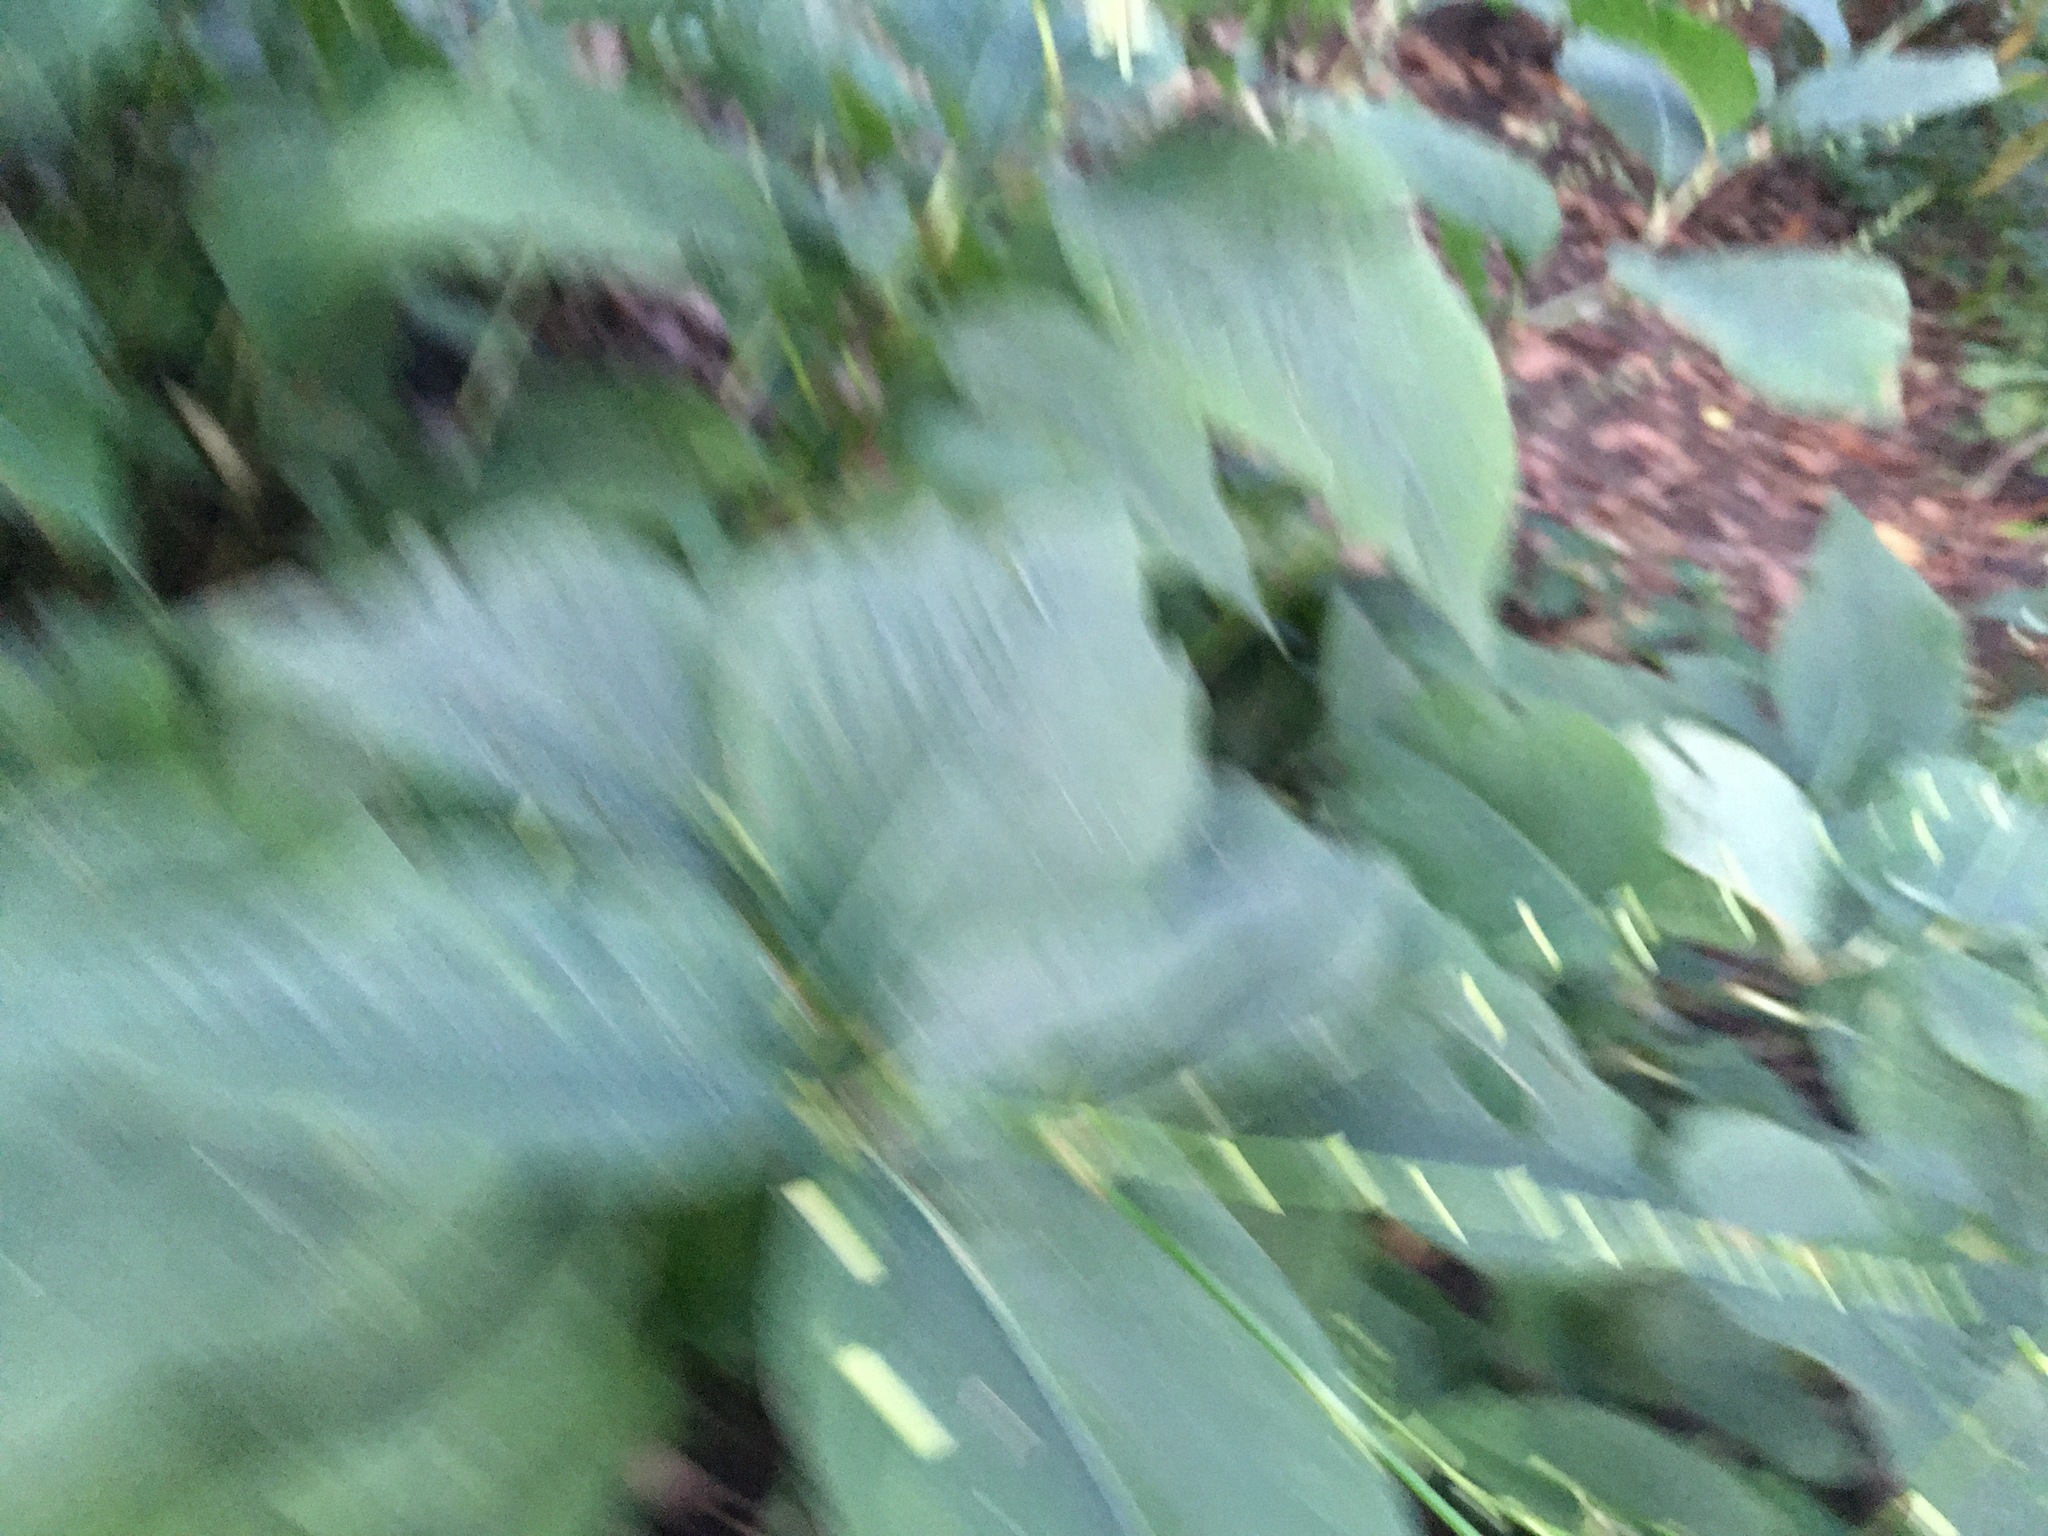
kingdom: Plantae
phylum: Tracheophyta
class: Magnoliopsida
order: Caryophyllales
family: Polygonaceae
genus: Persicaria
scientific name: Persicaria virginiana
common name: Jumpseed
